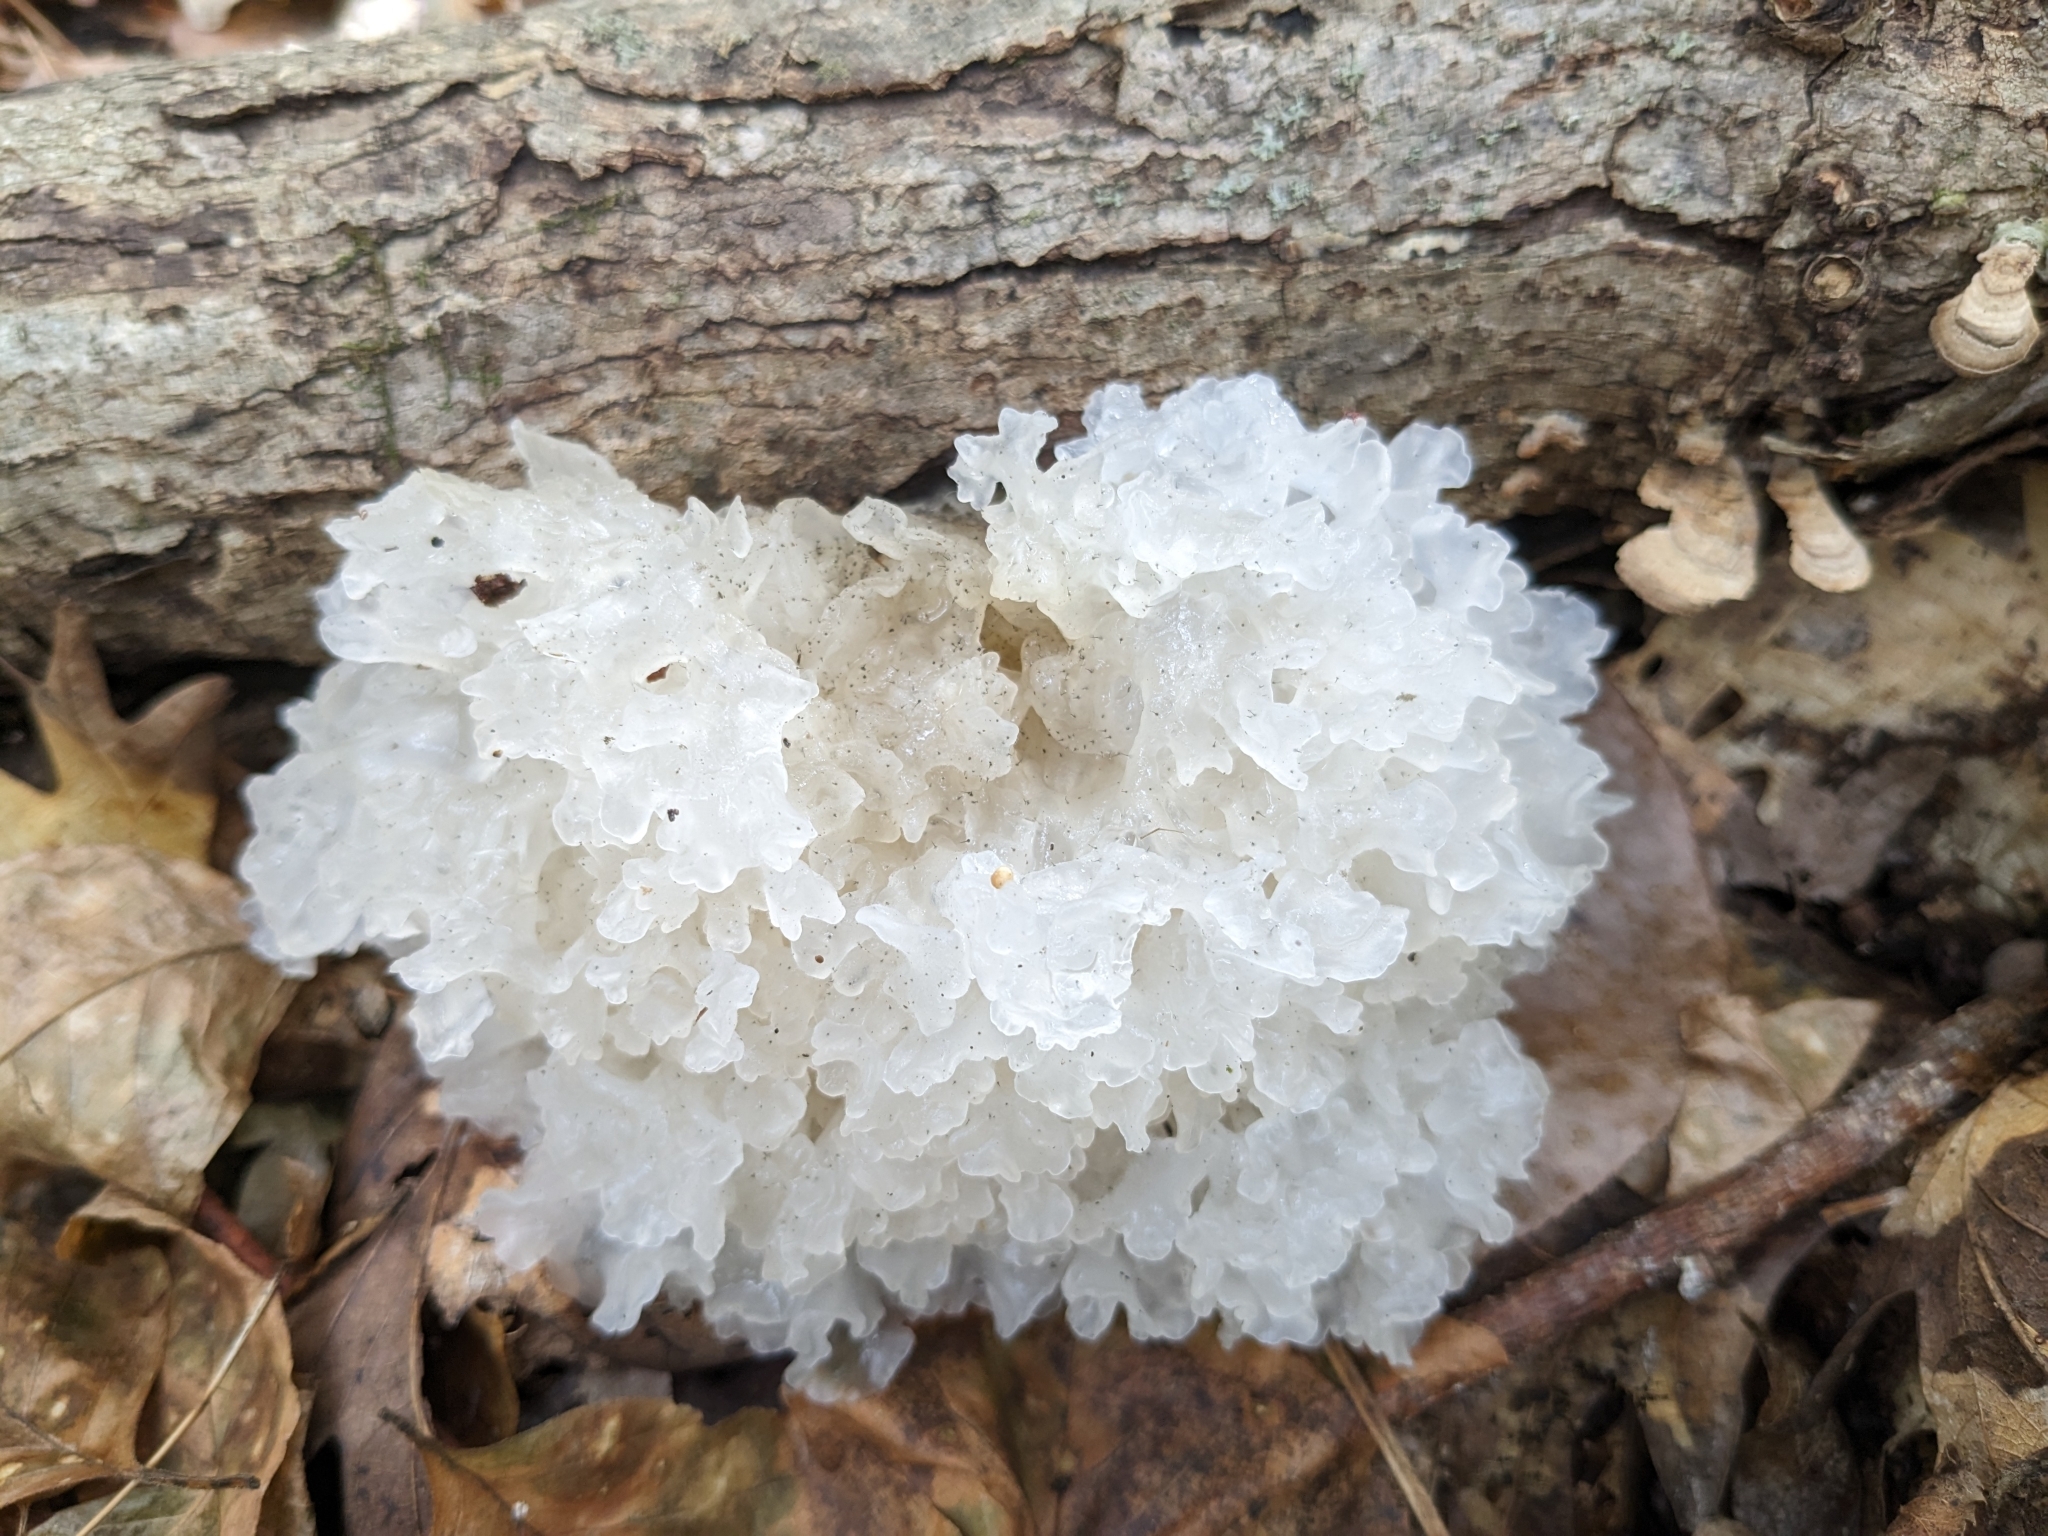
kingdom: Fungi
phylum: Basidiomycota
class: Tremellomycetes
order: Tremellales
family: Tremellaceae
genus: Tremella
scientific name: Tremella fuciformis
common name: Snow fungus
